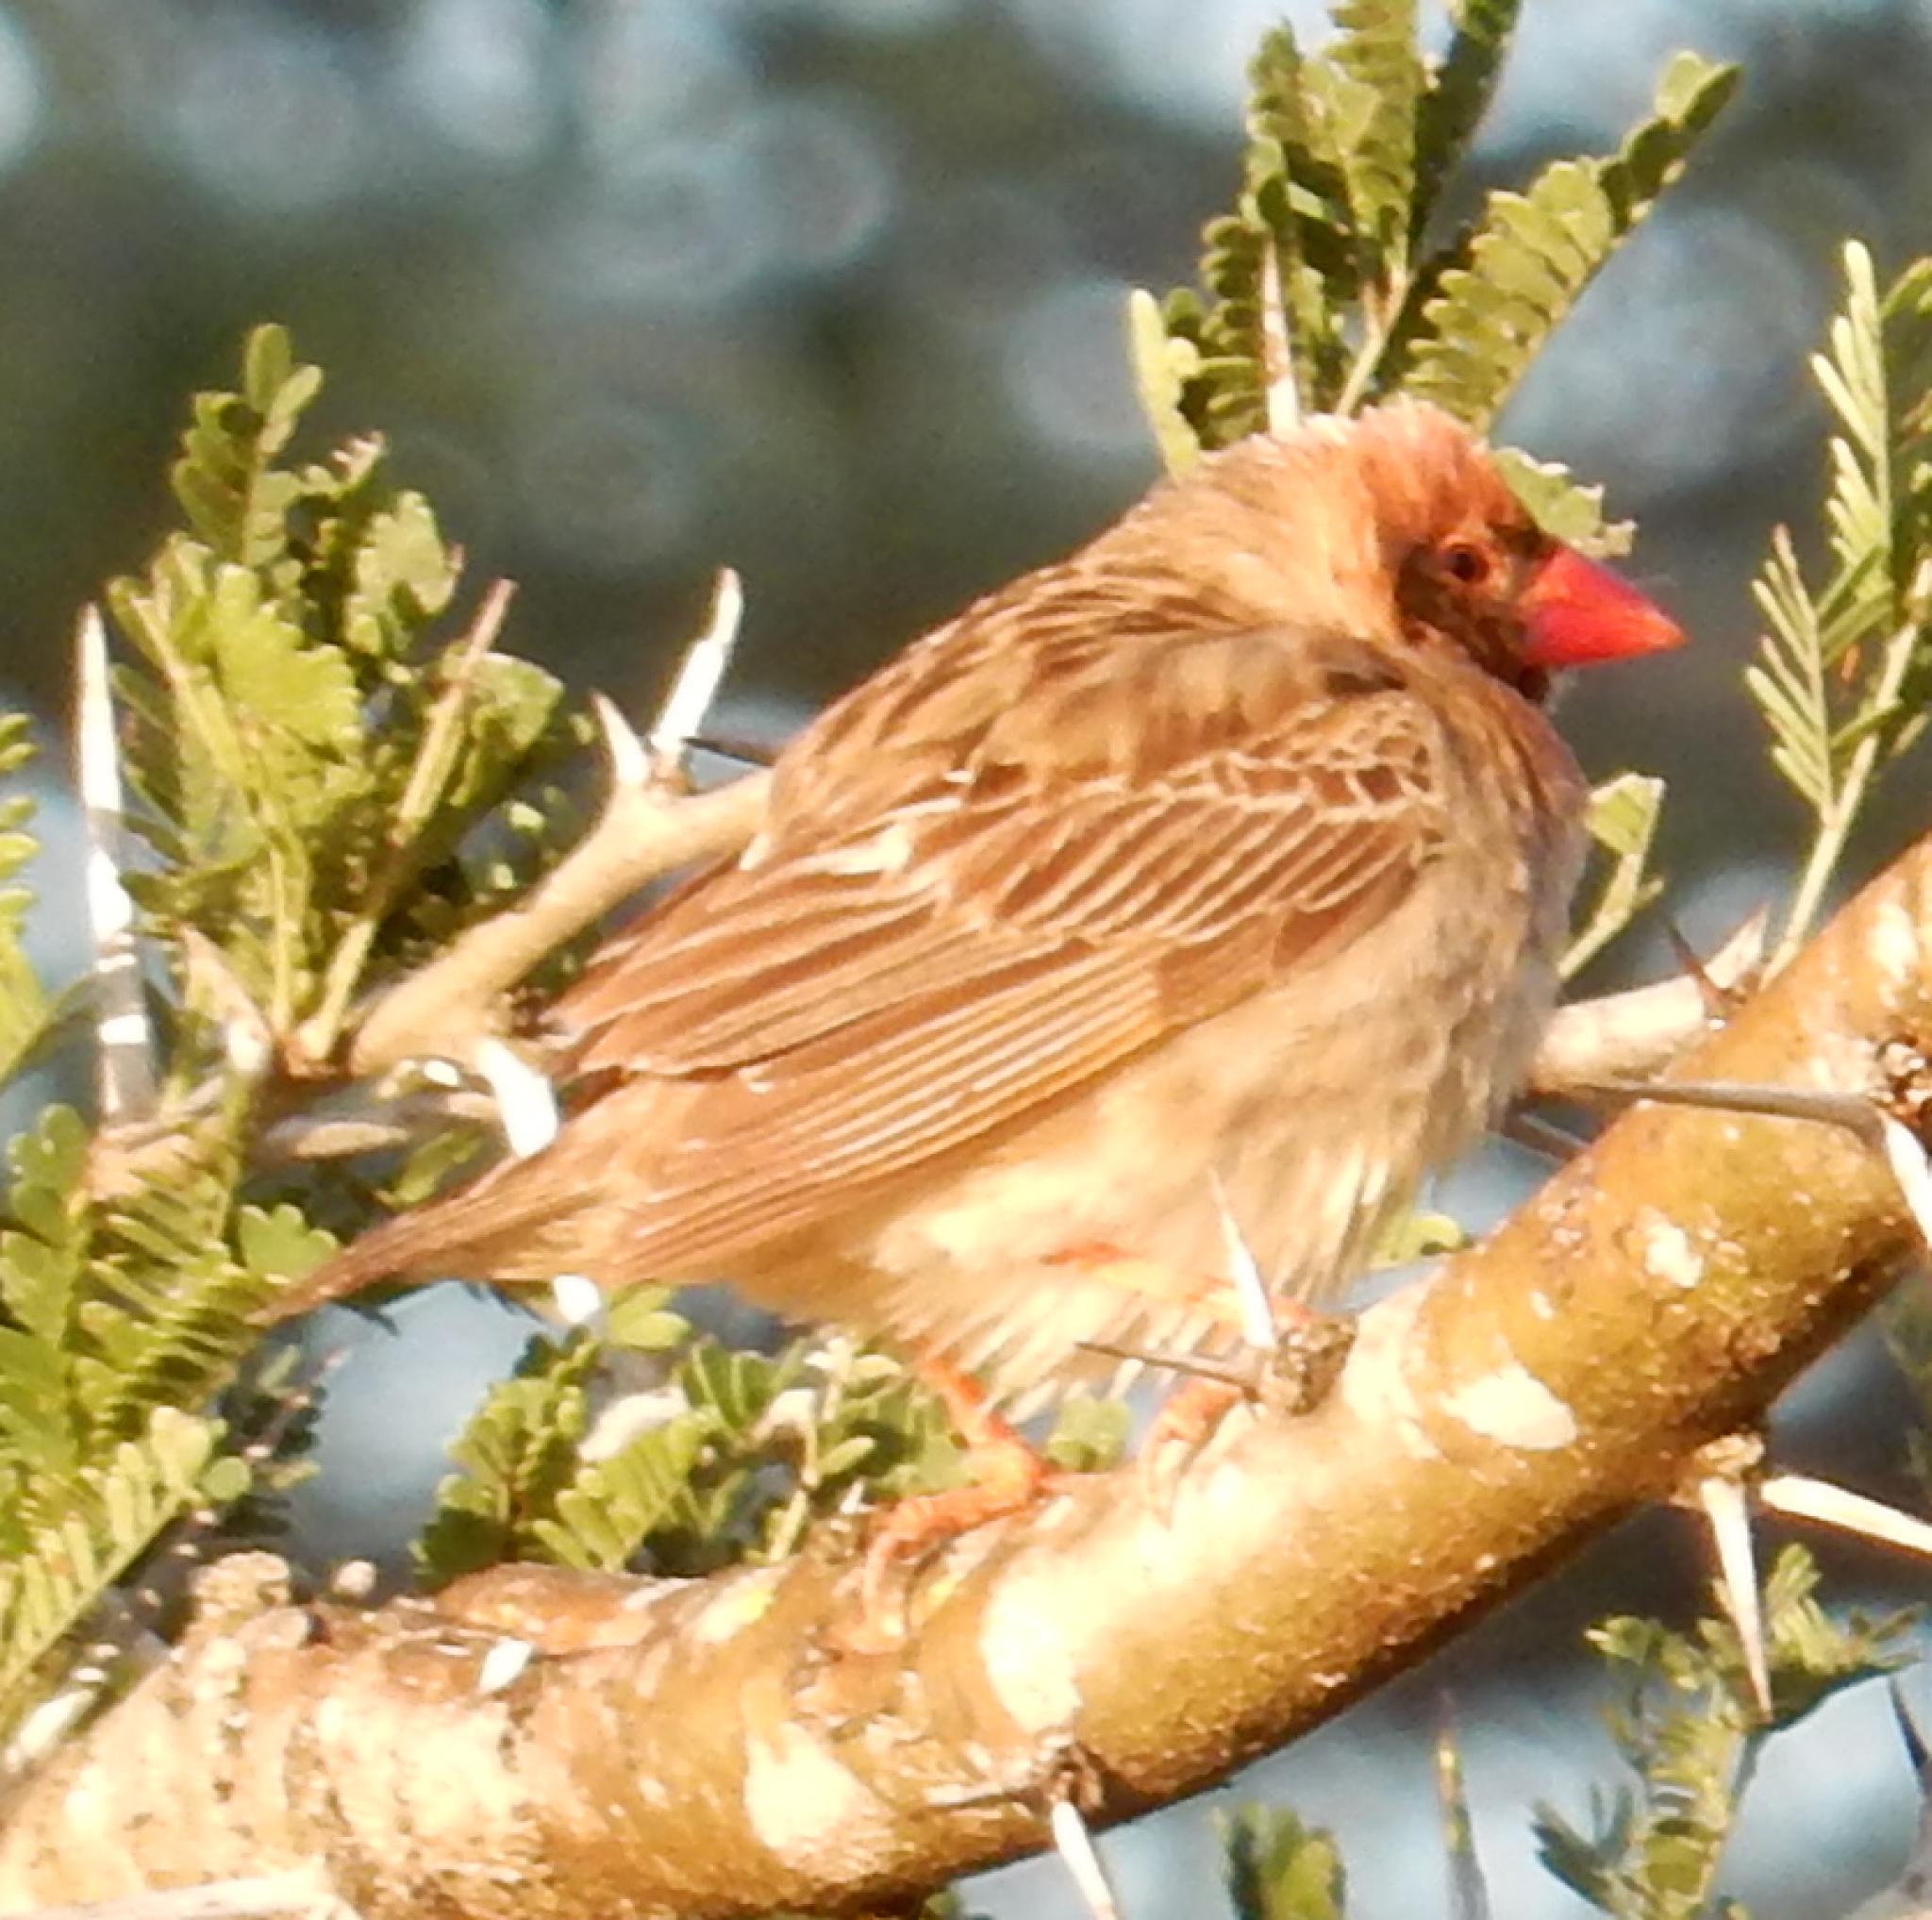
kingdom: Animalia
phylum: Chordata
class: Aves
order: Passeriformes
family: Ploceidae
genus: Quelea
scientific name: Quelea quelea
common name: Red-billed quelea
